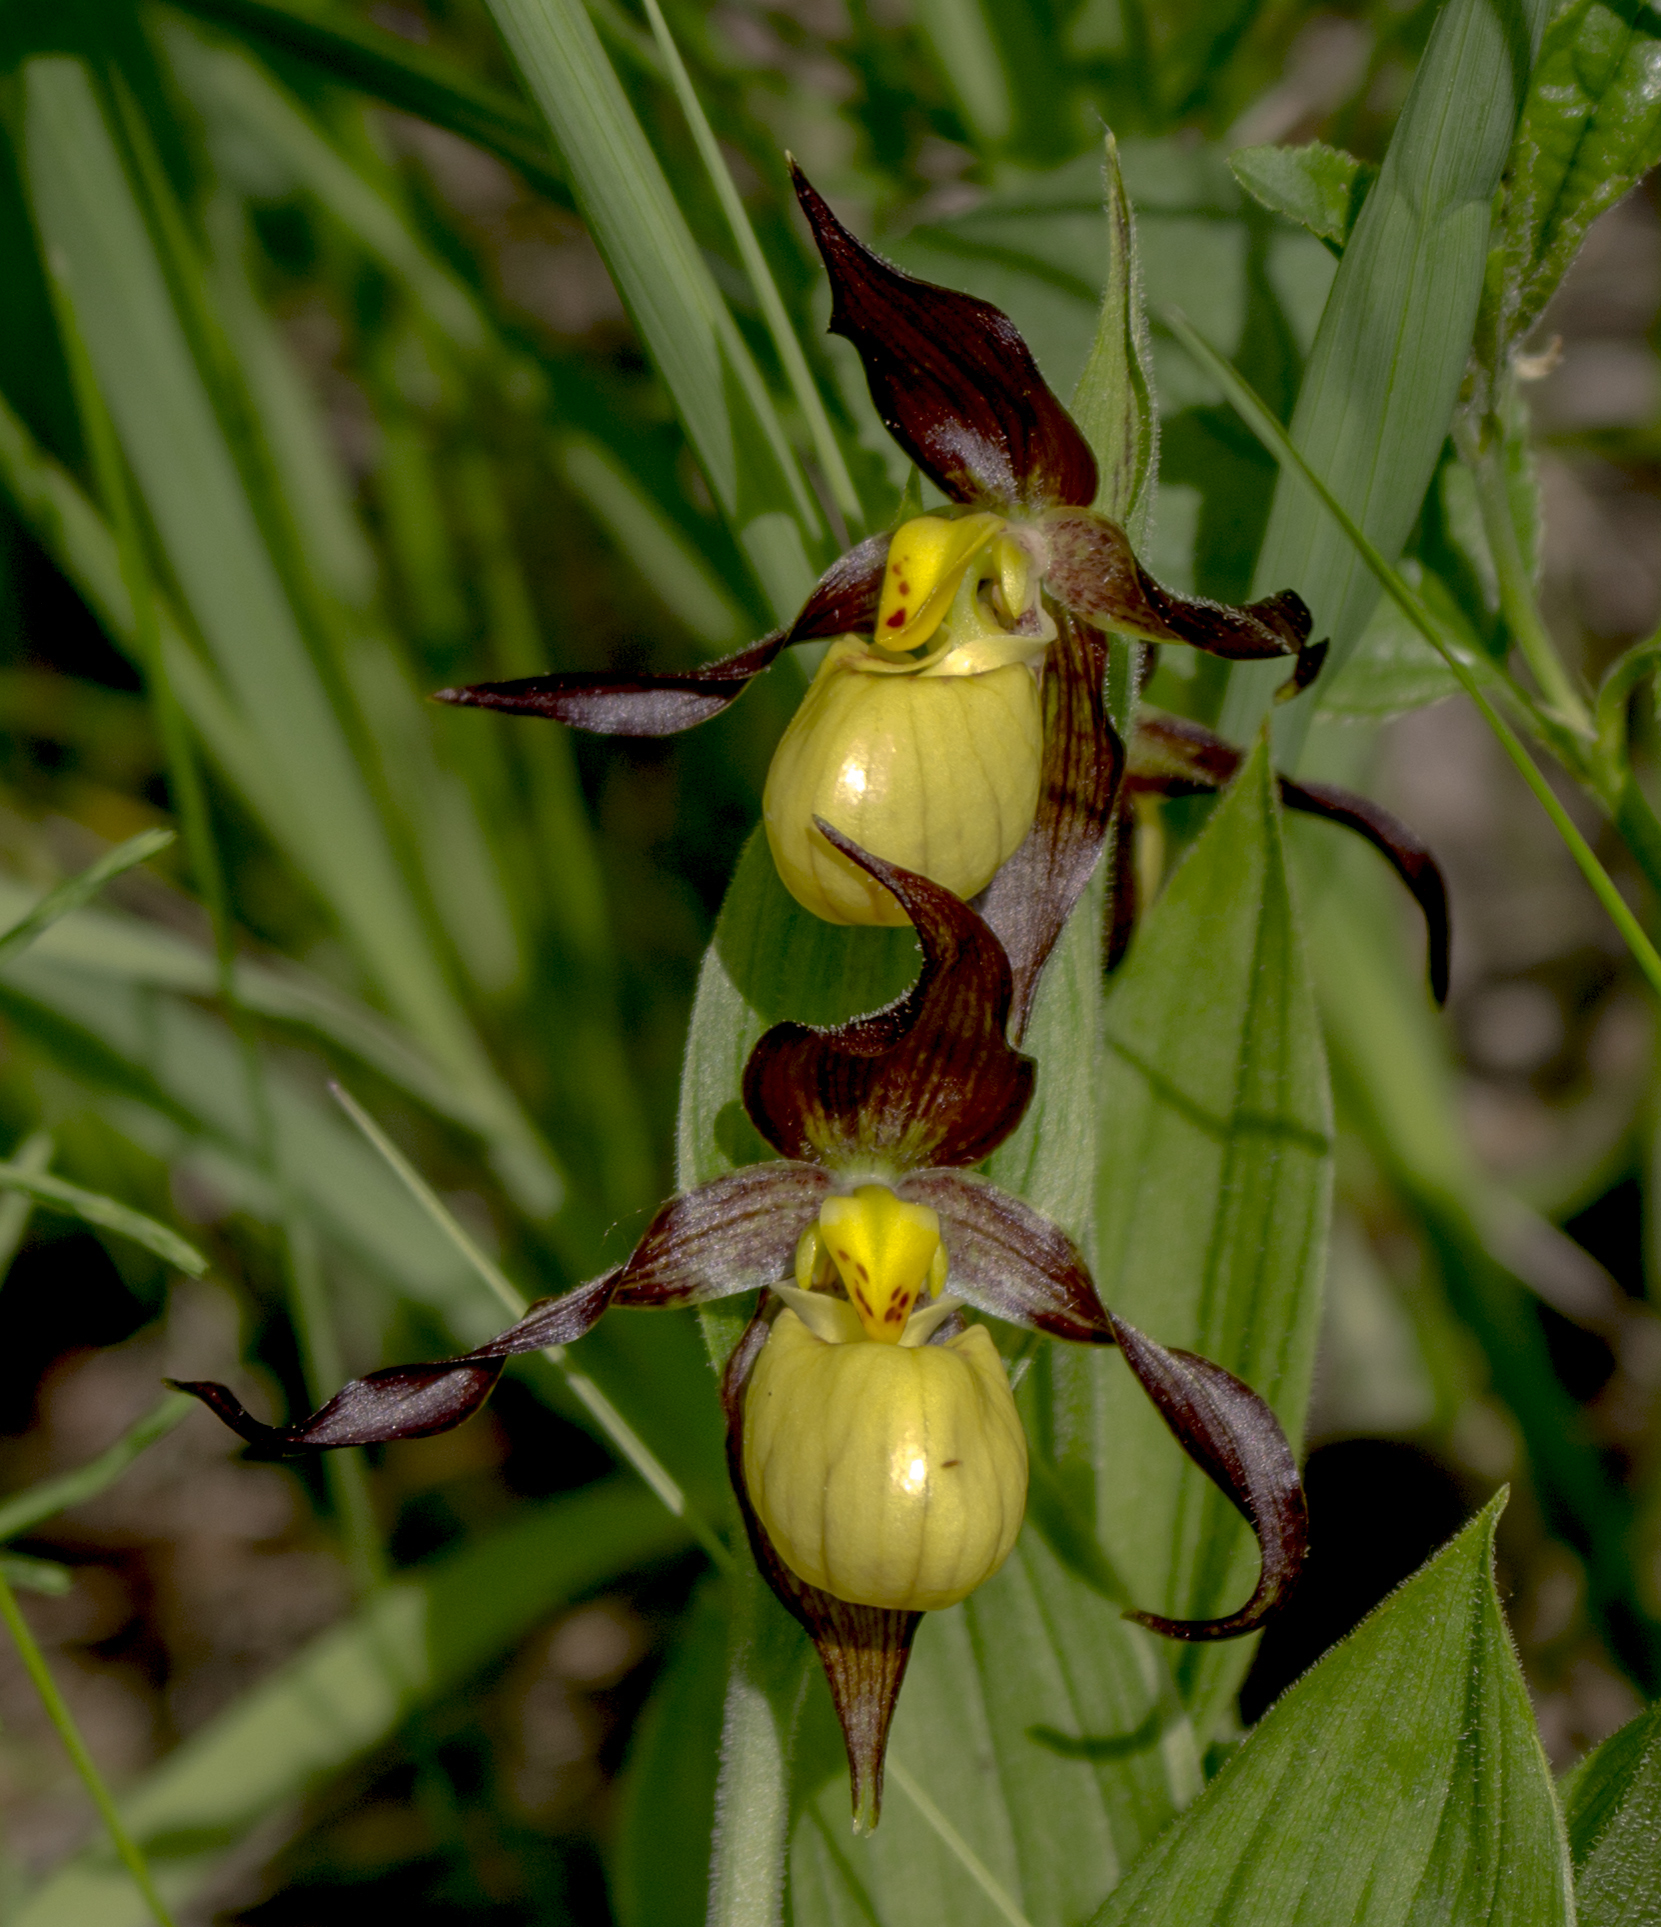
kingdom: Plantae
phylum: Tracheophyta
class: Liliopsida
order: Asparagales
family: Orchidaceae
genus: Cypripedium
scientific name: Cypripedium parviflorum
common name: American yellow lady's-slipper
